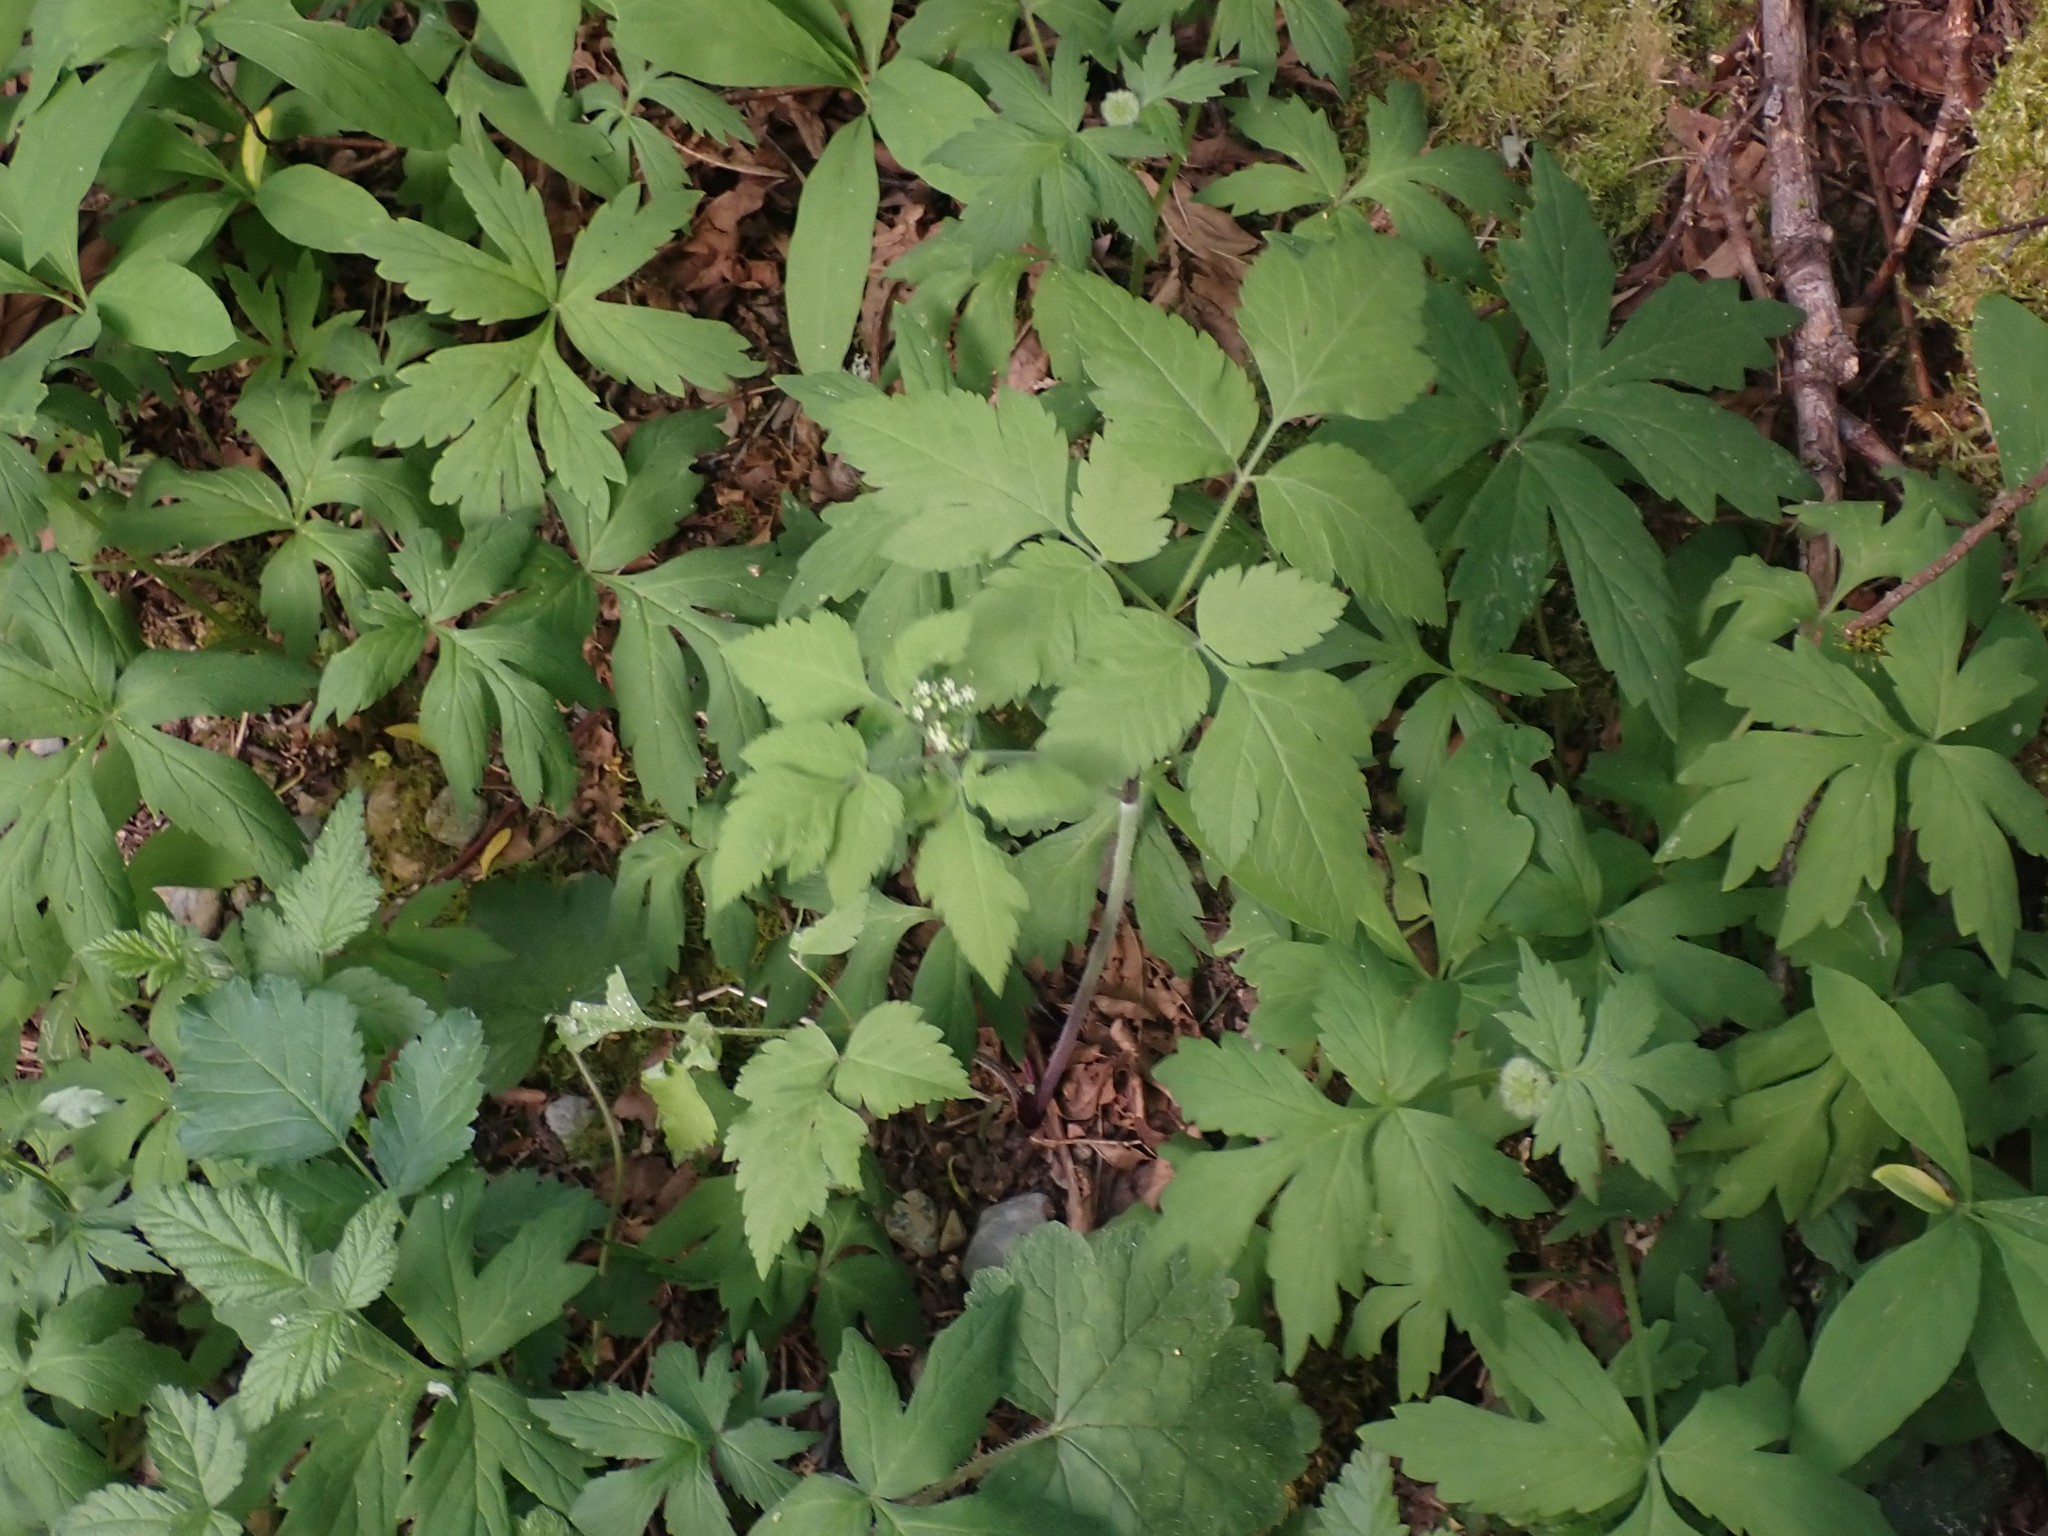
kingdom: Plantae
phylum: Tracheophyta
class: Magnoliopsida
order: Apiales
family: Apiaceae
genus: Osmorhiza
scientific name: Osmorhiza berteroi
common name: Mountain sweet cicely
